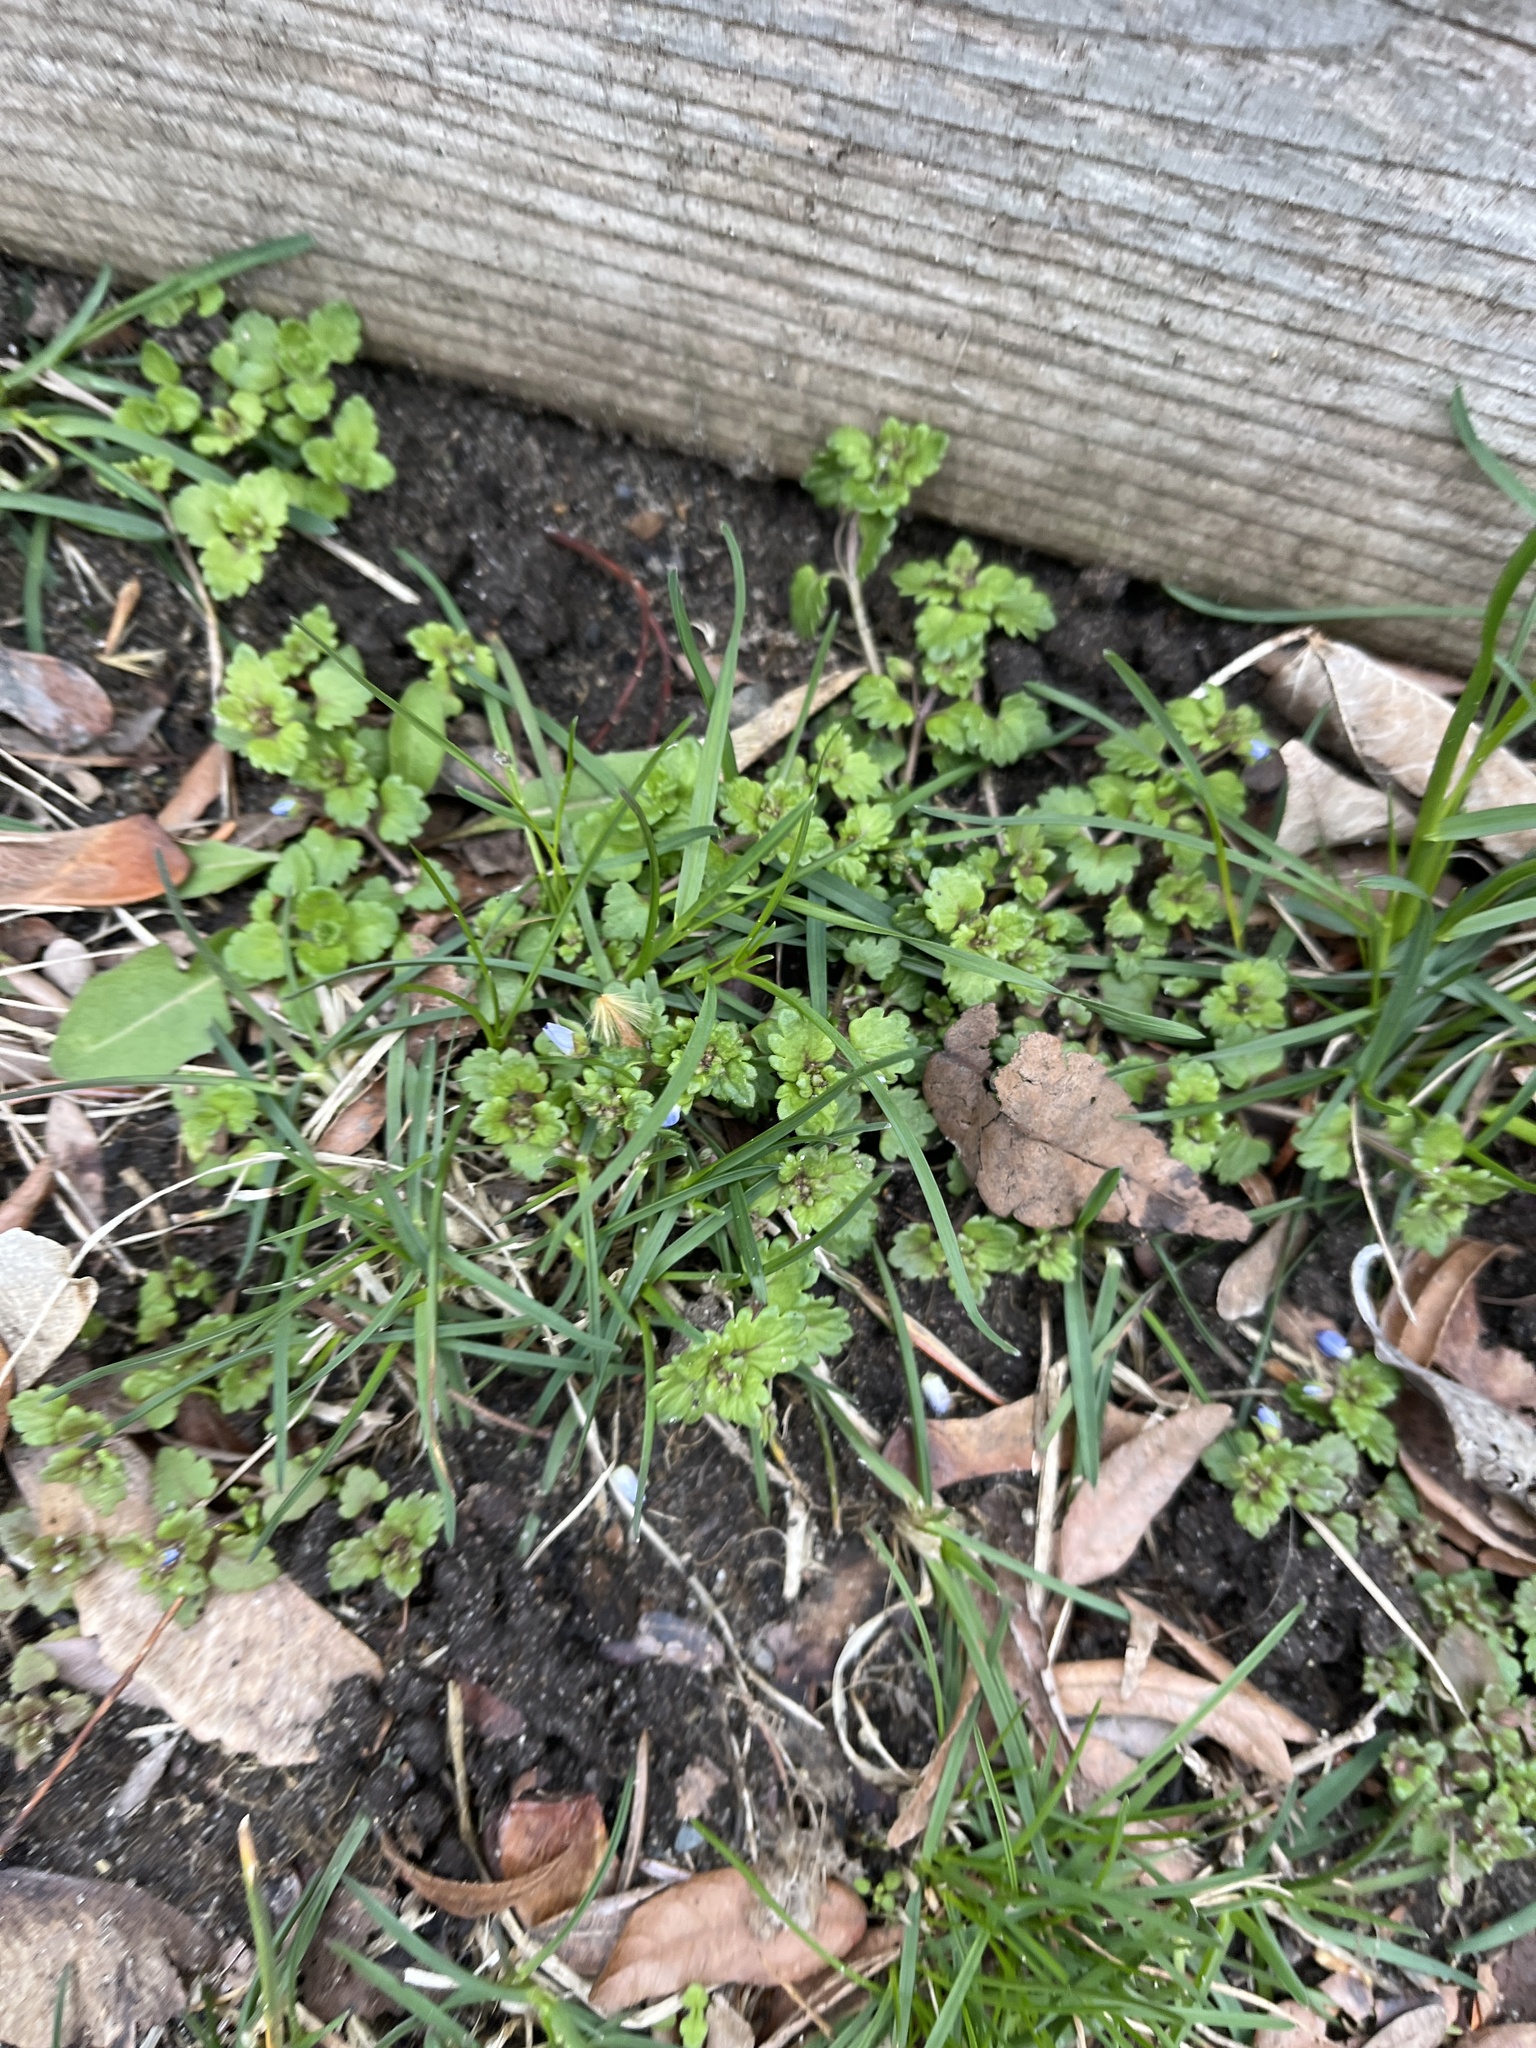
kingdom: Plantae
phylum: Tracheophyta
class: Magnoliopsida
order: Lamiales
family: Plantaginaceae
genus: Veronica
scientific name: Veronica polita
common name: Grey field-speedwell
